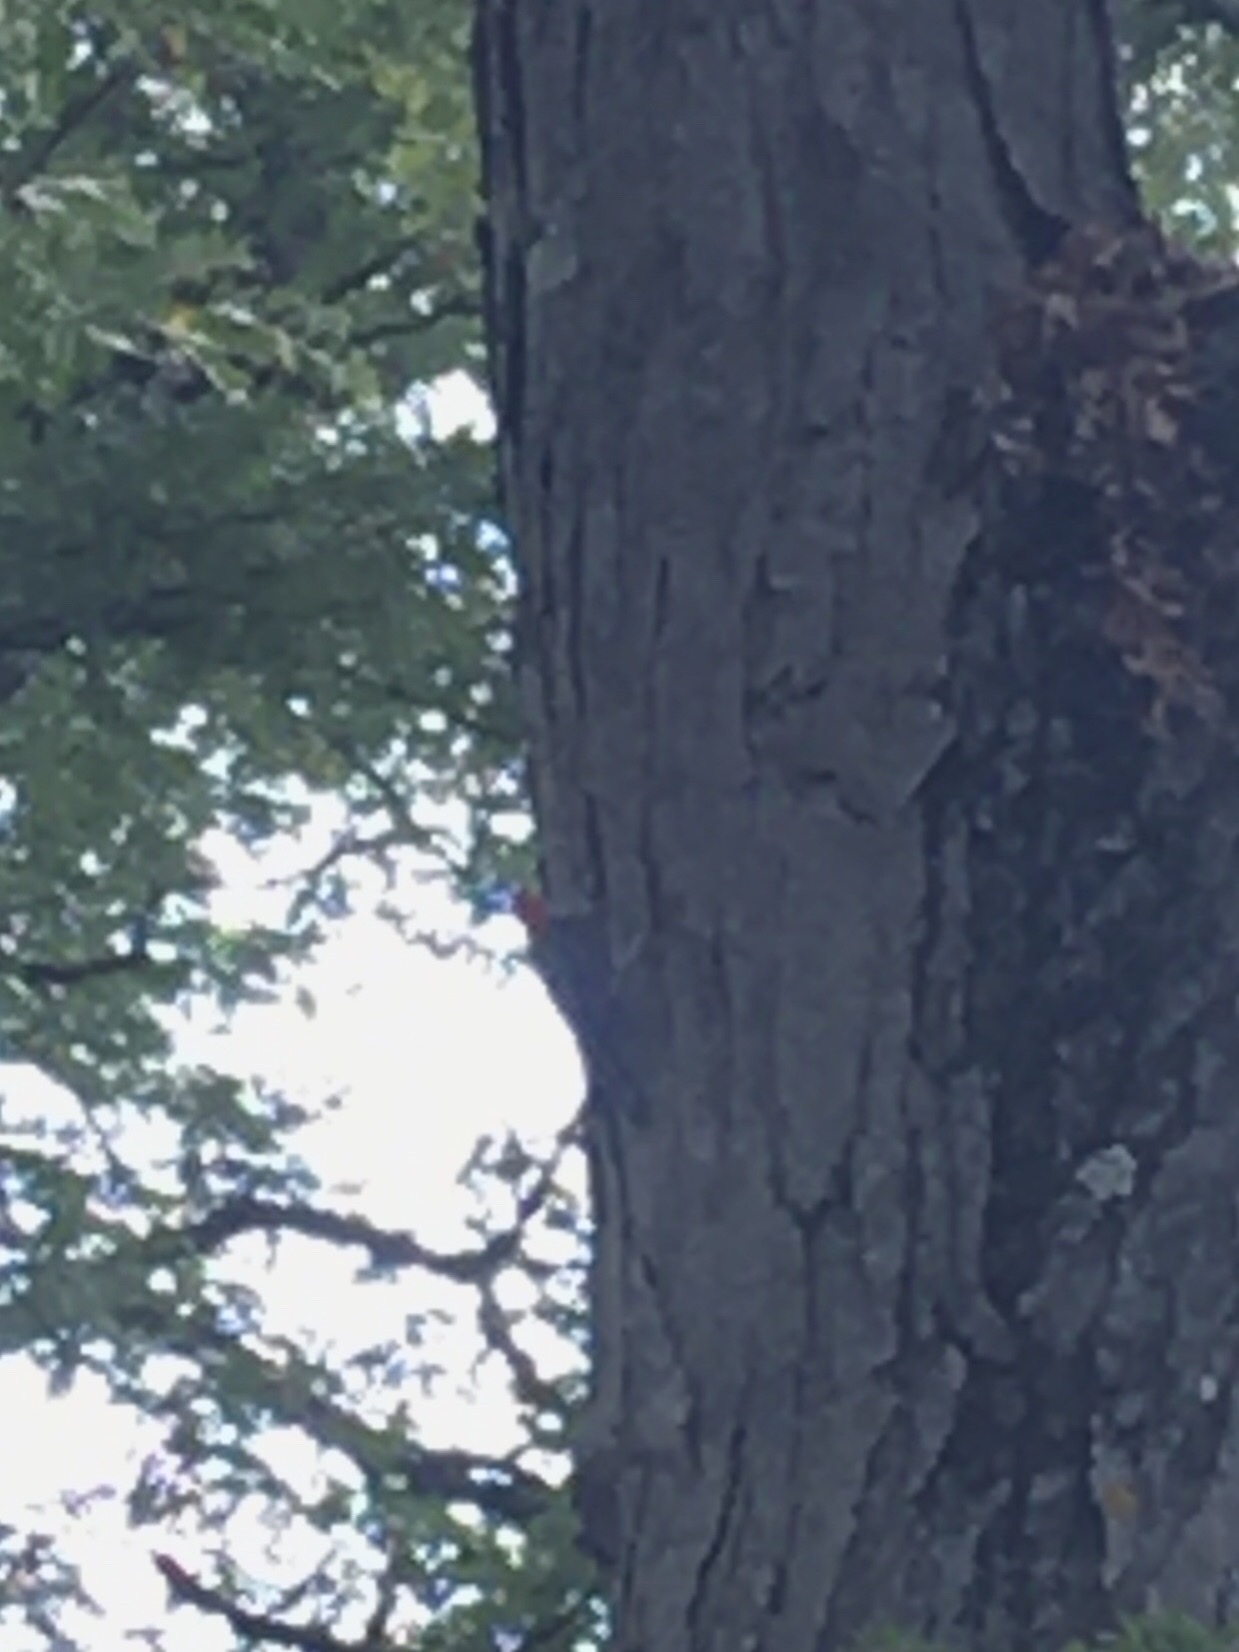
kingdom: Animalia
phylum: Chordata
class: Aves
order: Piciformes
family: Picidae
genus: Melanerpes
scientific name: Melanerpes carolinus
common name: Red-bellied woodpecker
